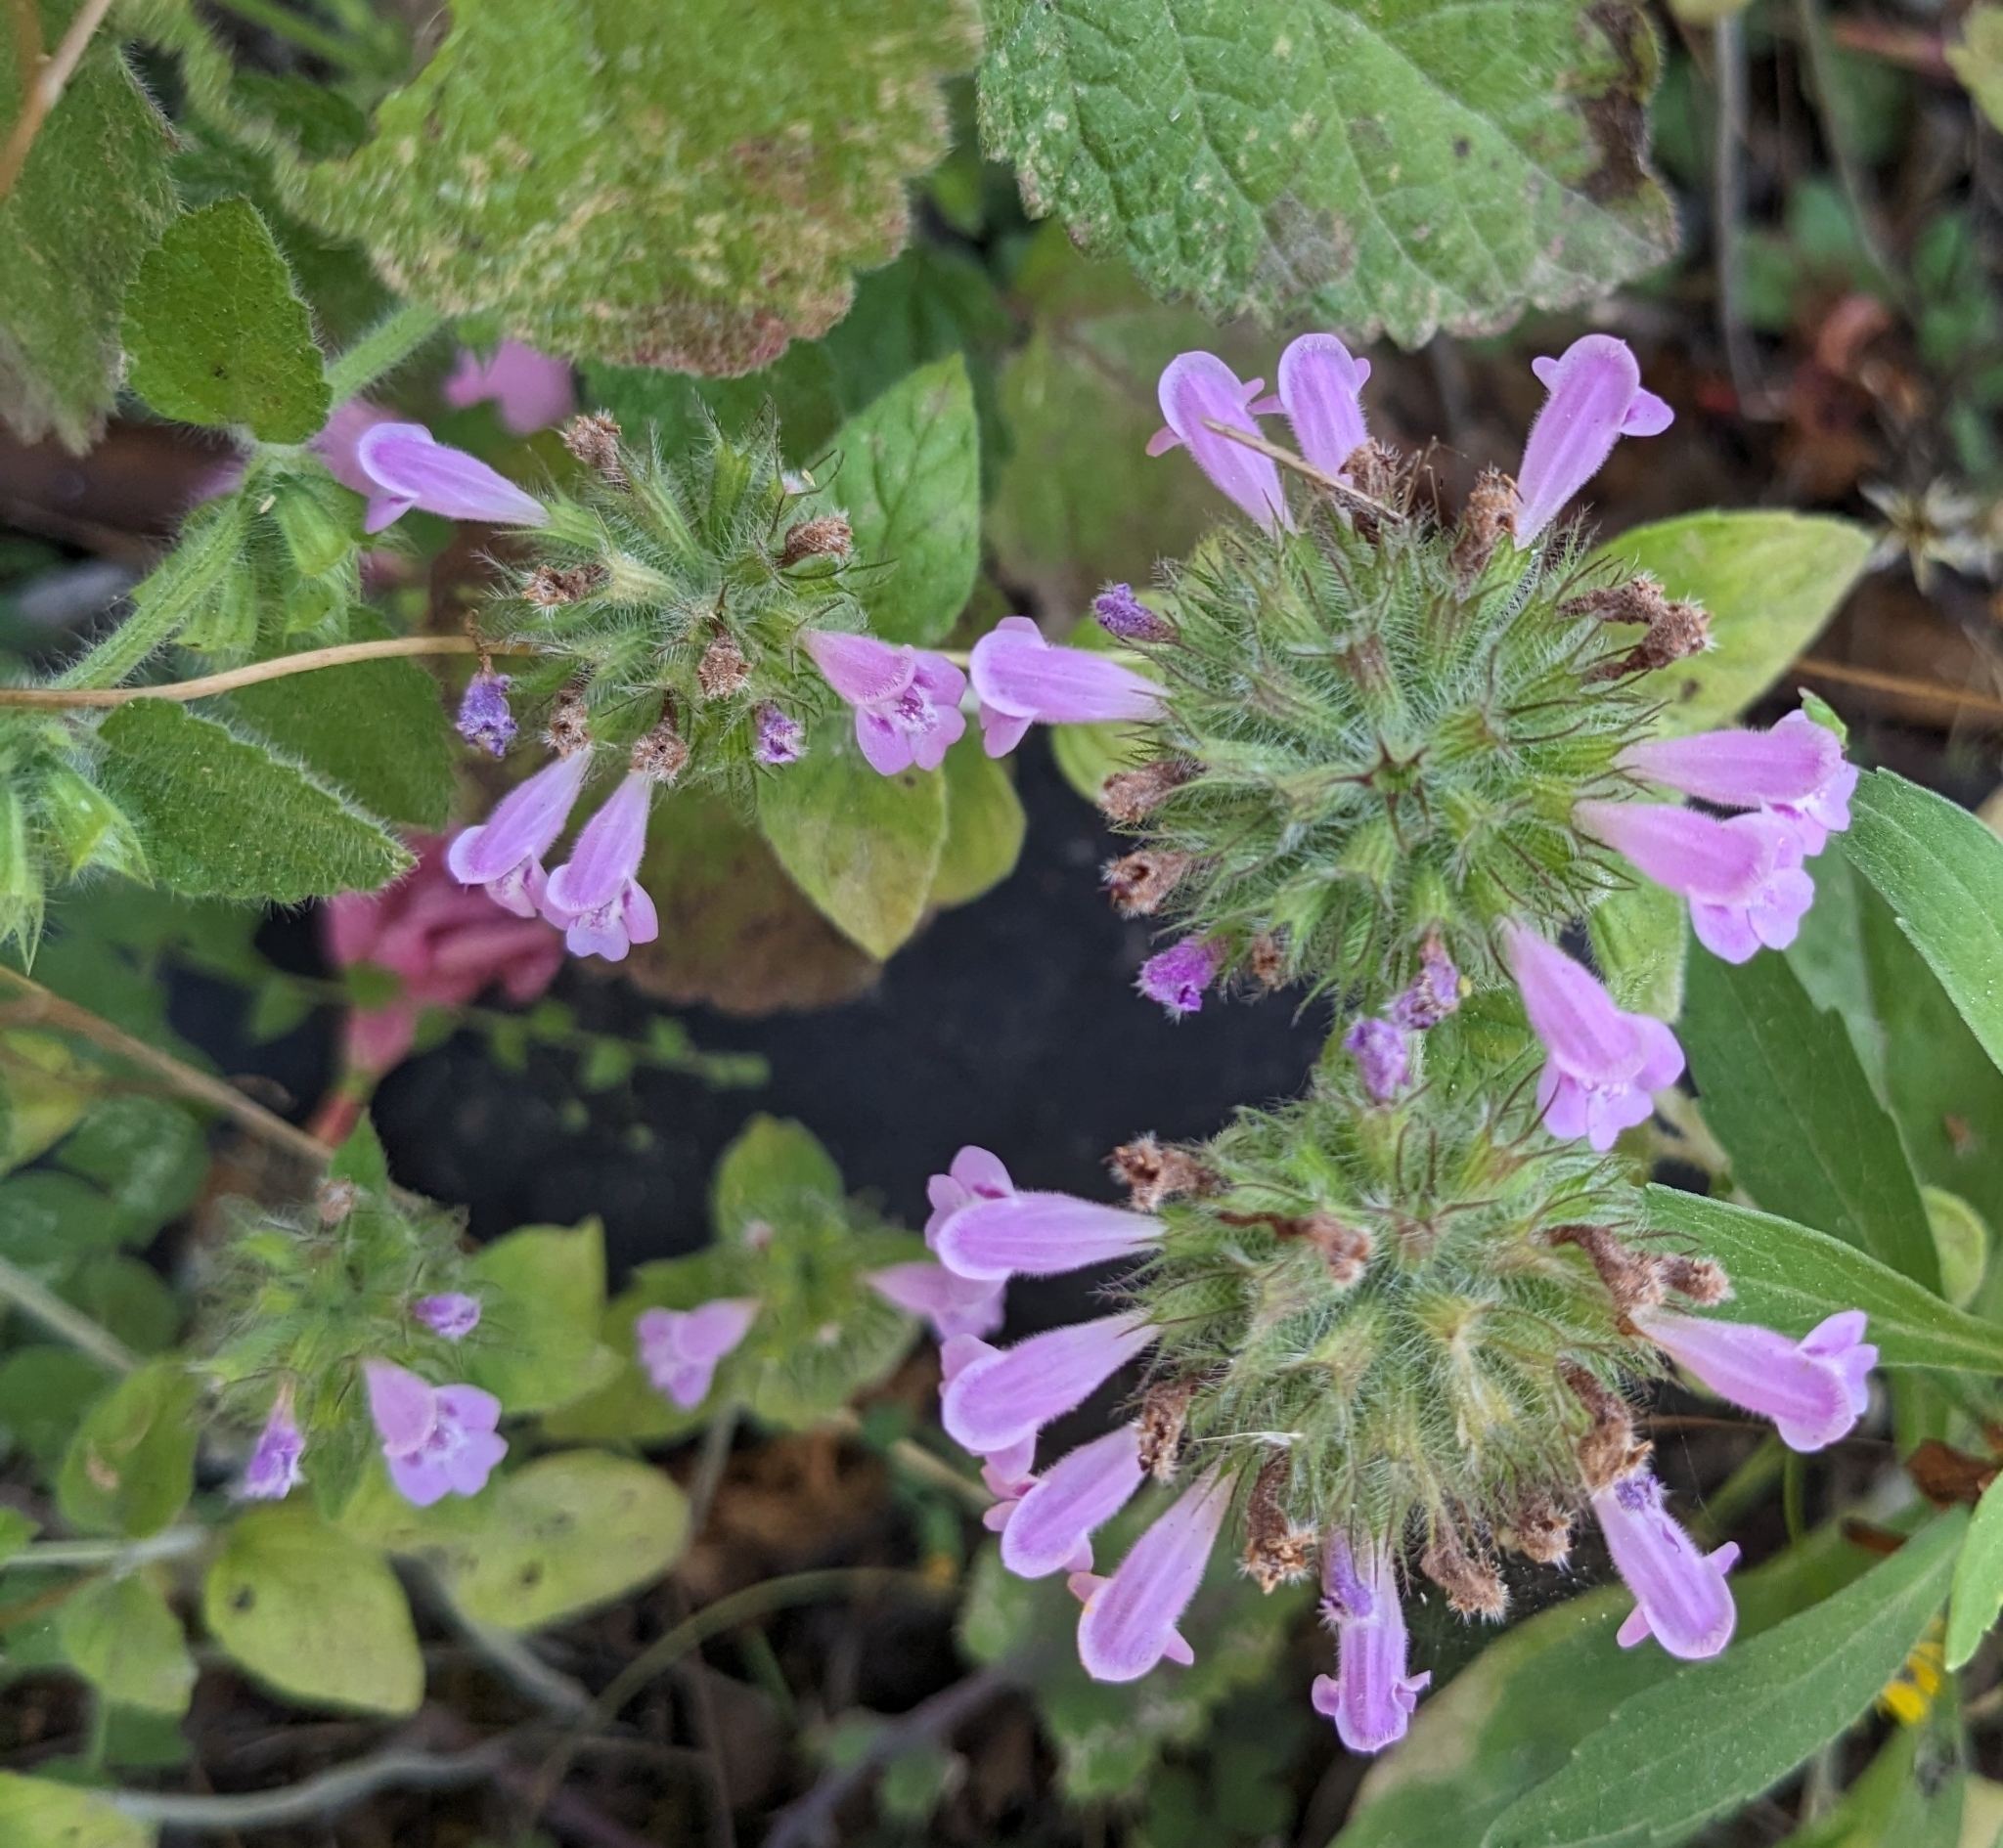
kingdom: Plantae
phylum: Tracheophyta
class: Magnoliopsida
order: Lamiales
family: Lamiaceae
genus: Clinopodium
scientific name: Clinopodium vulgare
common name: Wild basil
